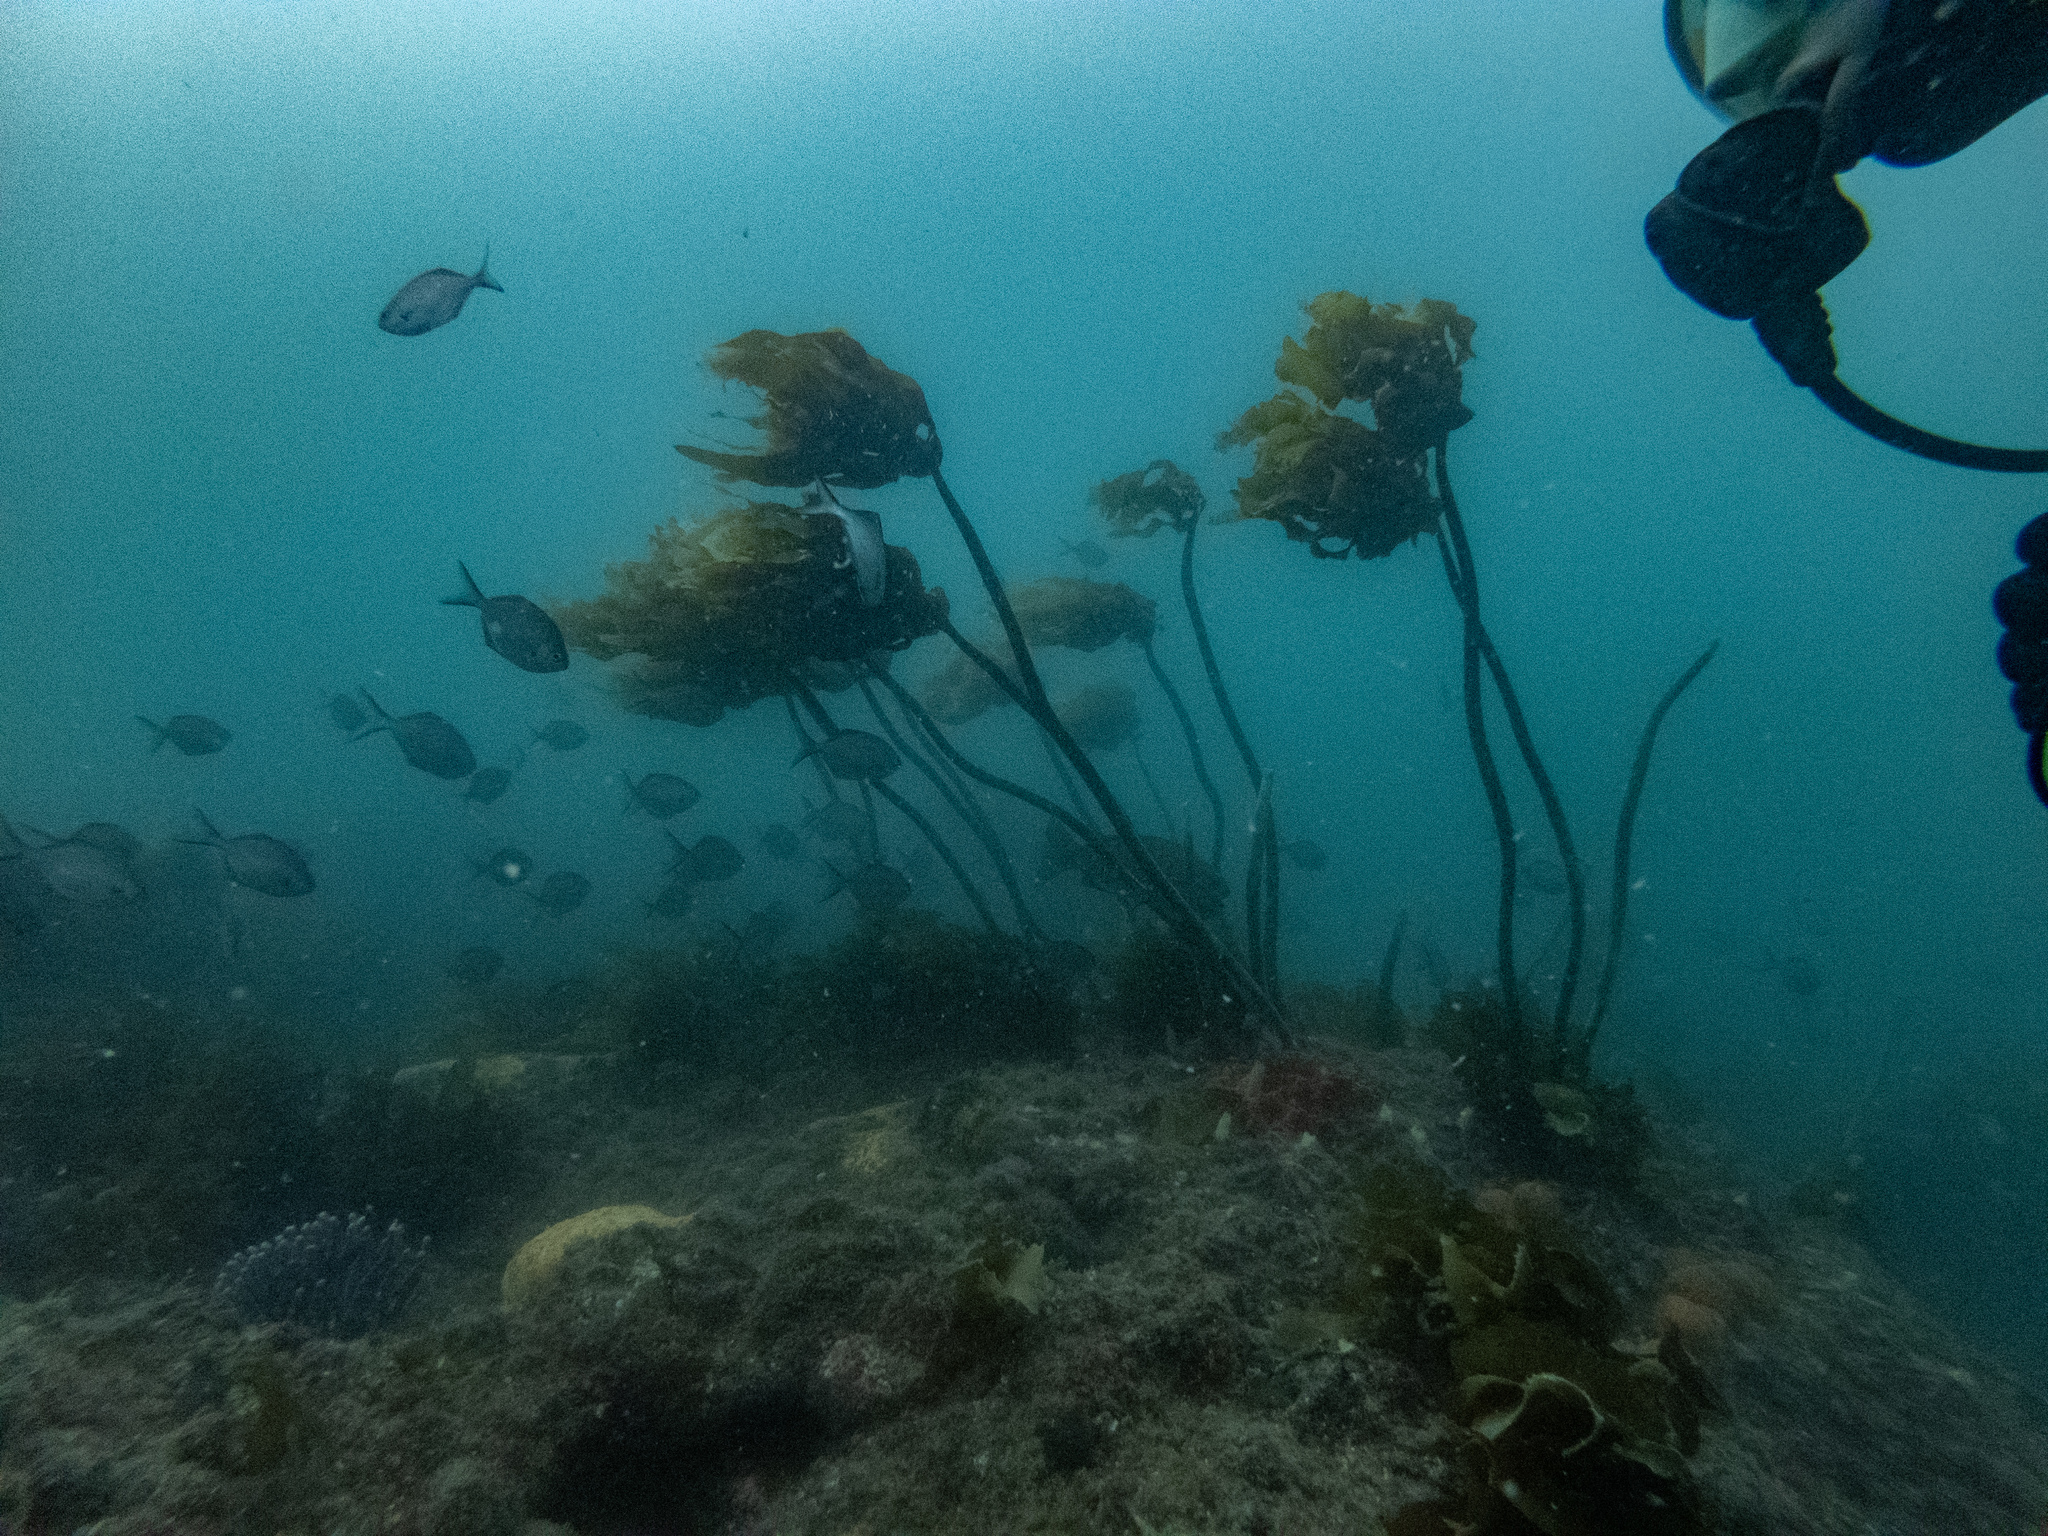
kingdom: Animalia
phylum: Chordata
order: Perciformes
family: Kyphosidae
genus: Scorpis
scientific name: Scorpis lineolata
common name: Sweep
